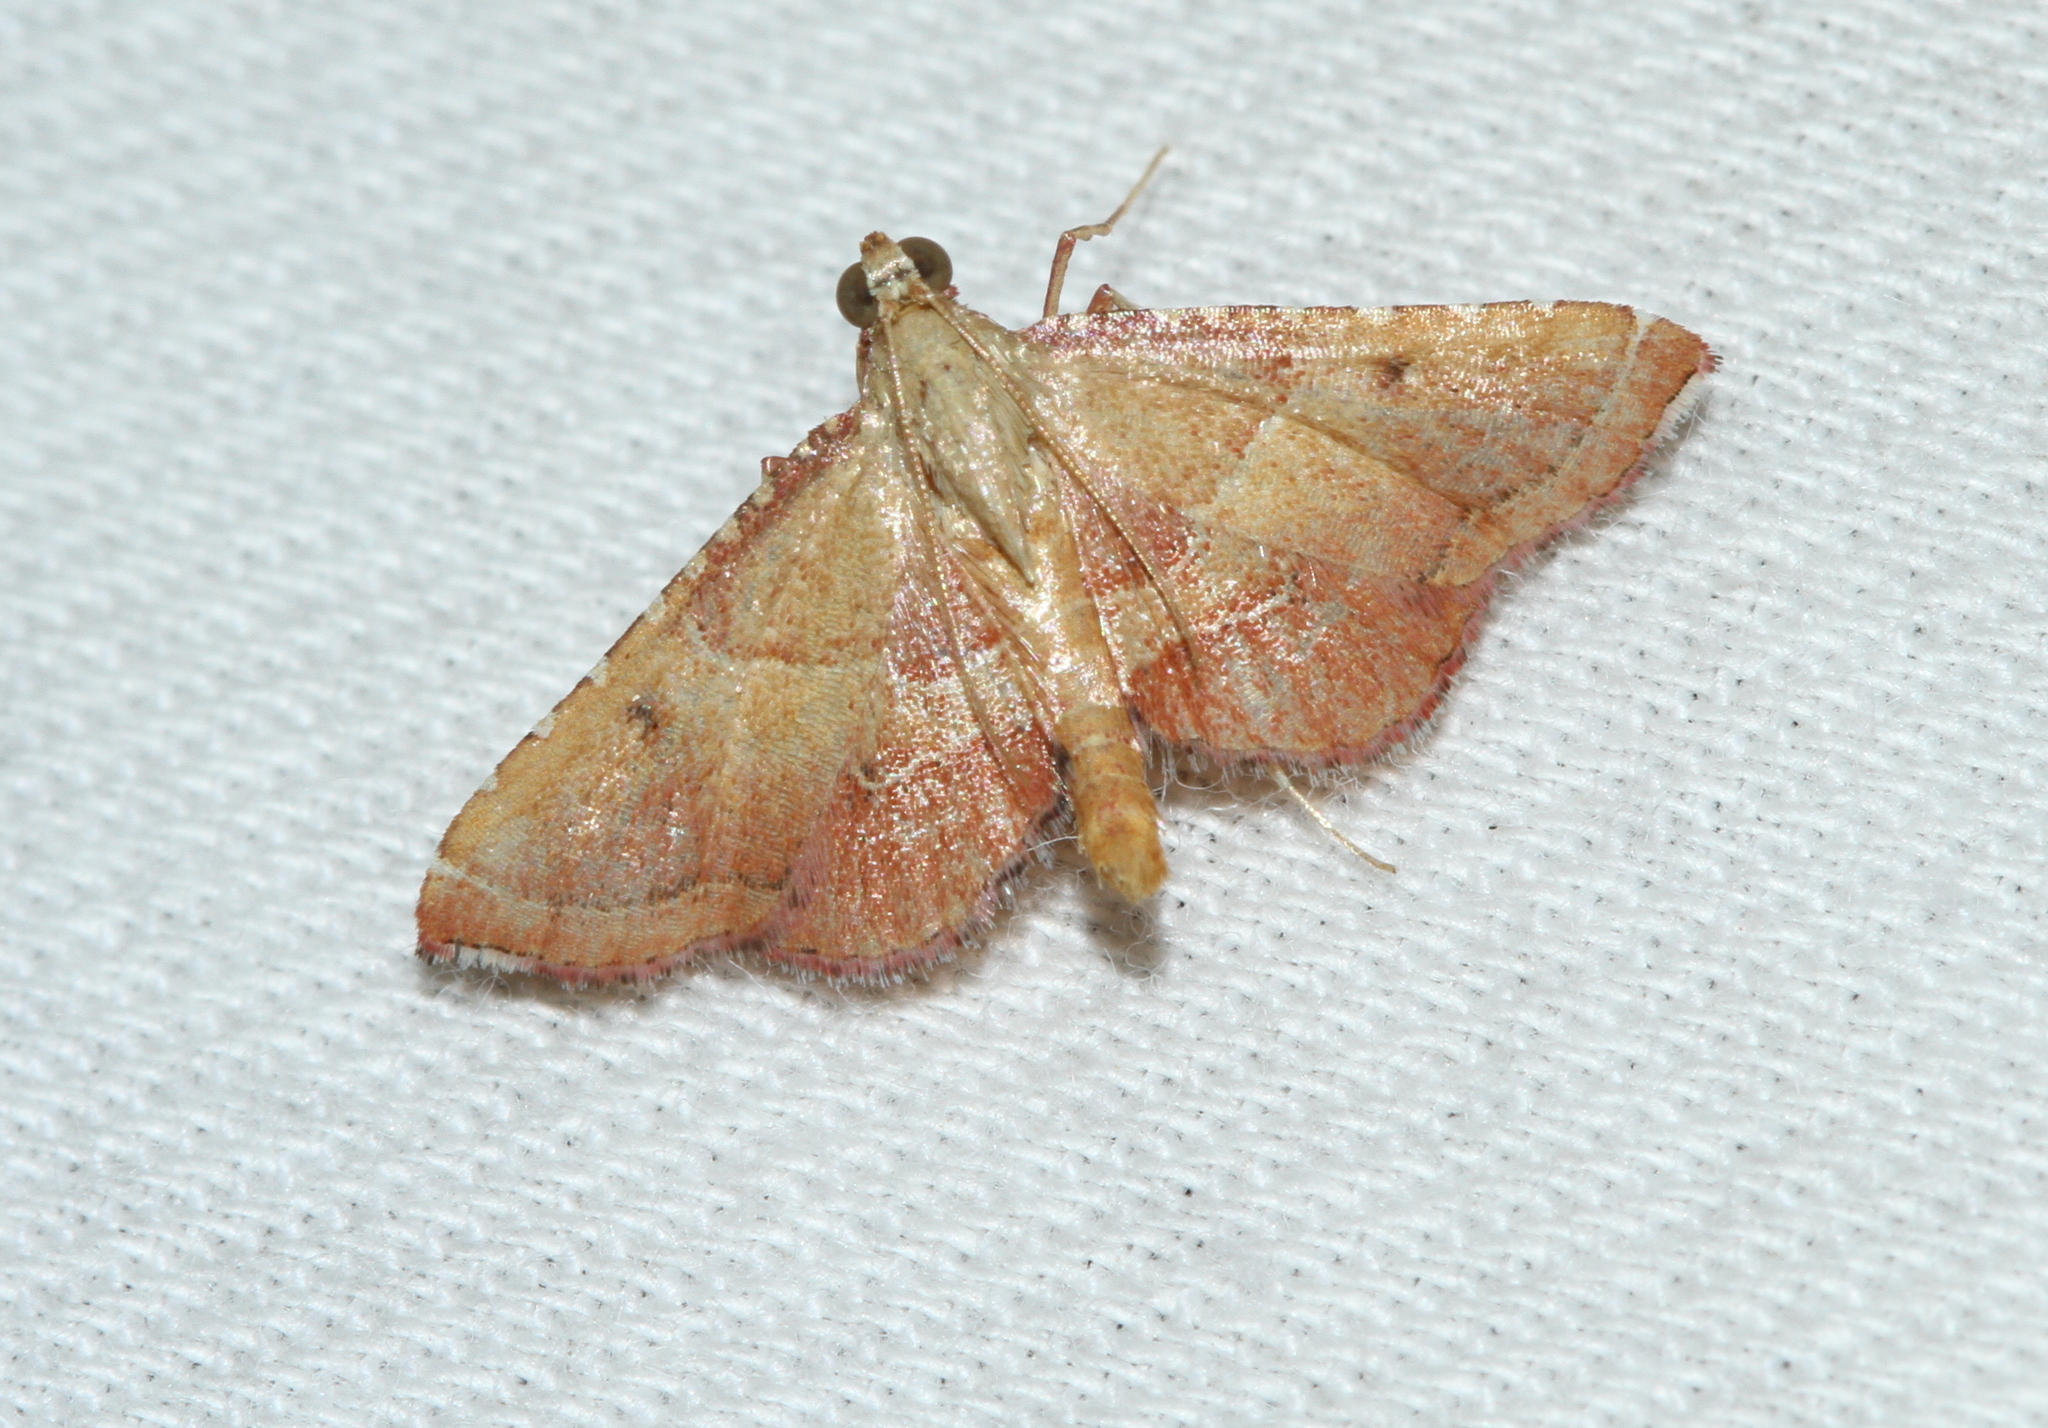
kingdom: Animalia
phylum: Arthropoda
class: Insecta
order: Lepidoptera
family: Pyralidae
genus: Endotricha
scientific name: Endotricha flammealis
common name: Rosy tabby
